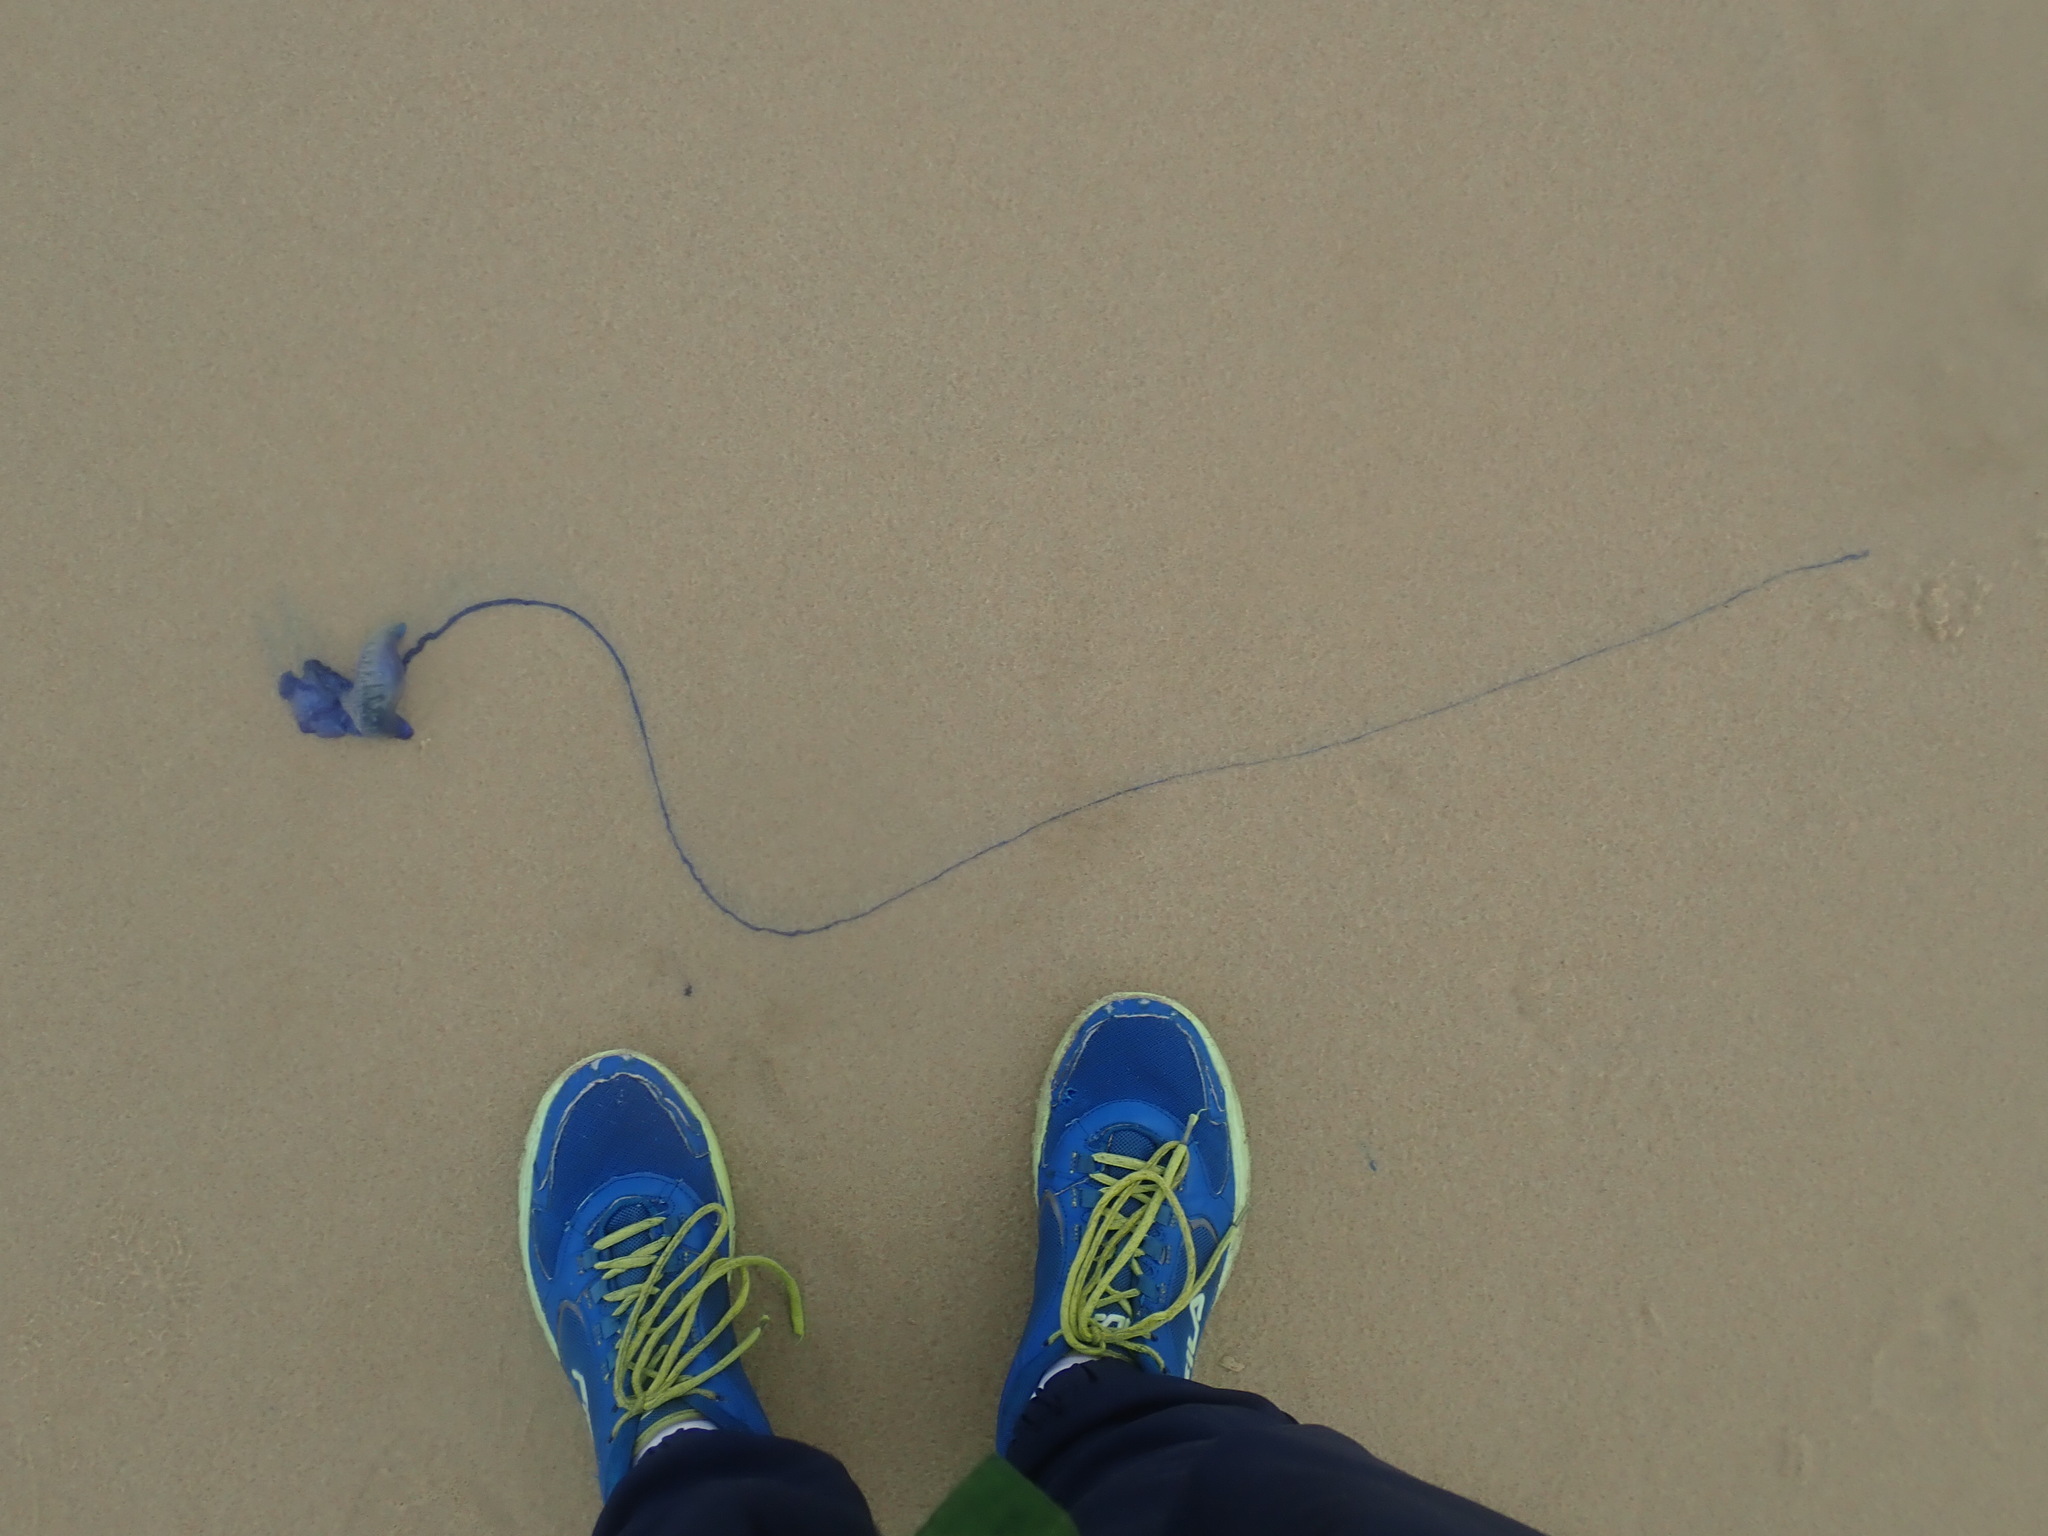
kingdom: Animalia
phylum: Cnidaria
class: Hydrozoa
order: Siphonophorae
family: Physaliidae
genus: Physalia
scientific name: Physalia physalis
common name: Portuguese man-of-war
